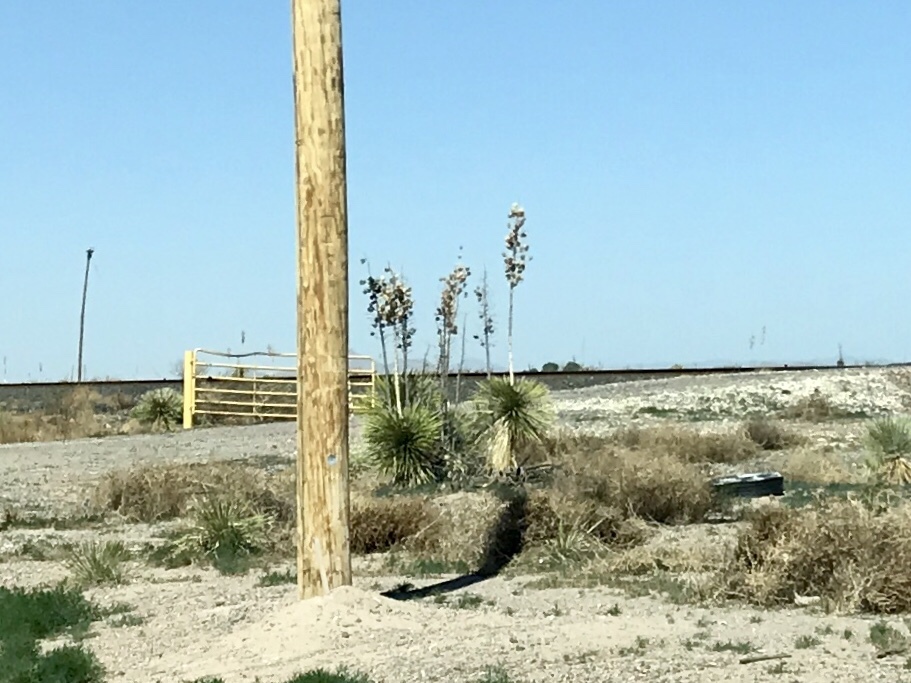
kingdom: Plantae
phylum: Tracheophyta
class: Liliopsida
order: Asparagales
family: Asparagaceae
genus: Yucca
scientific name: Yucca elata
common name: Palmella
